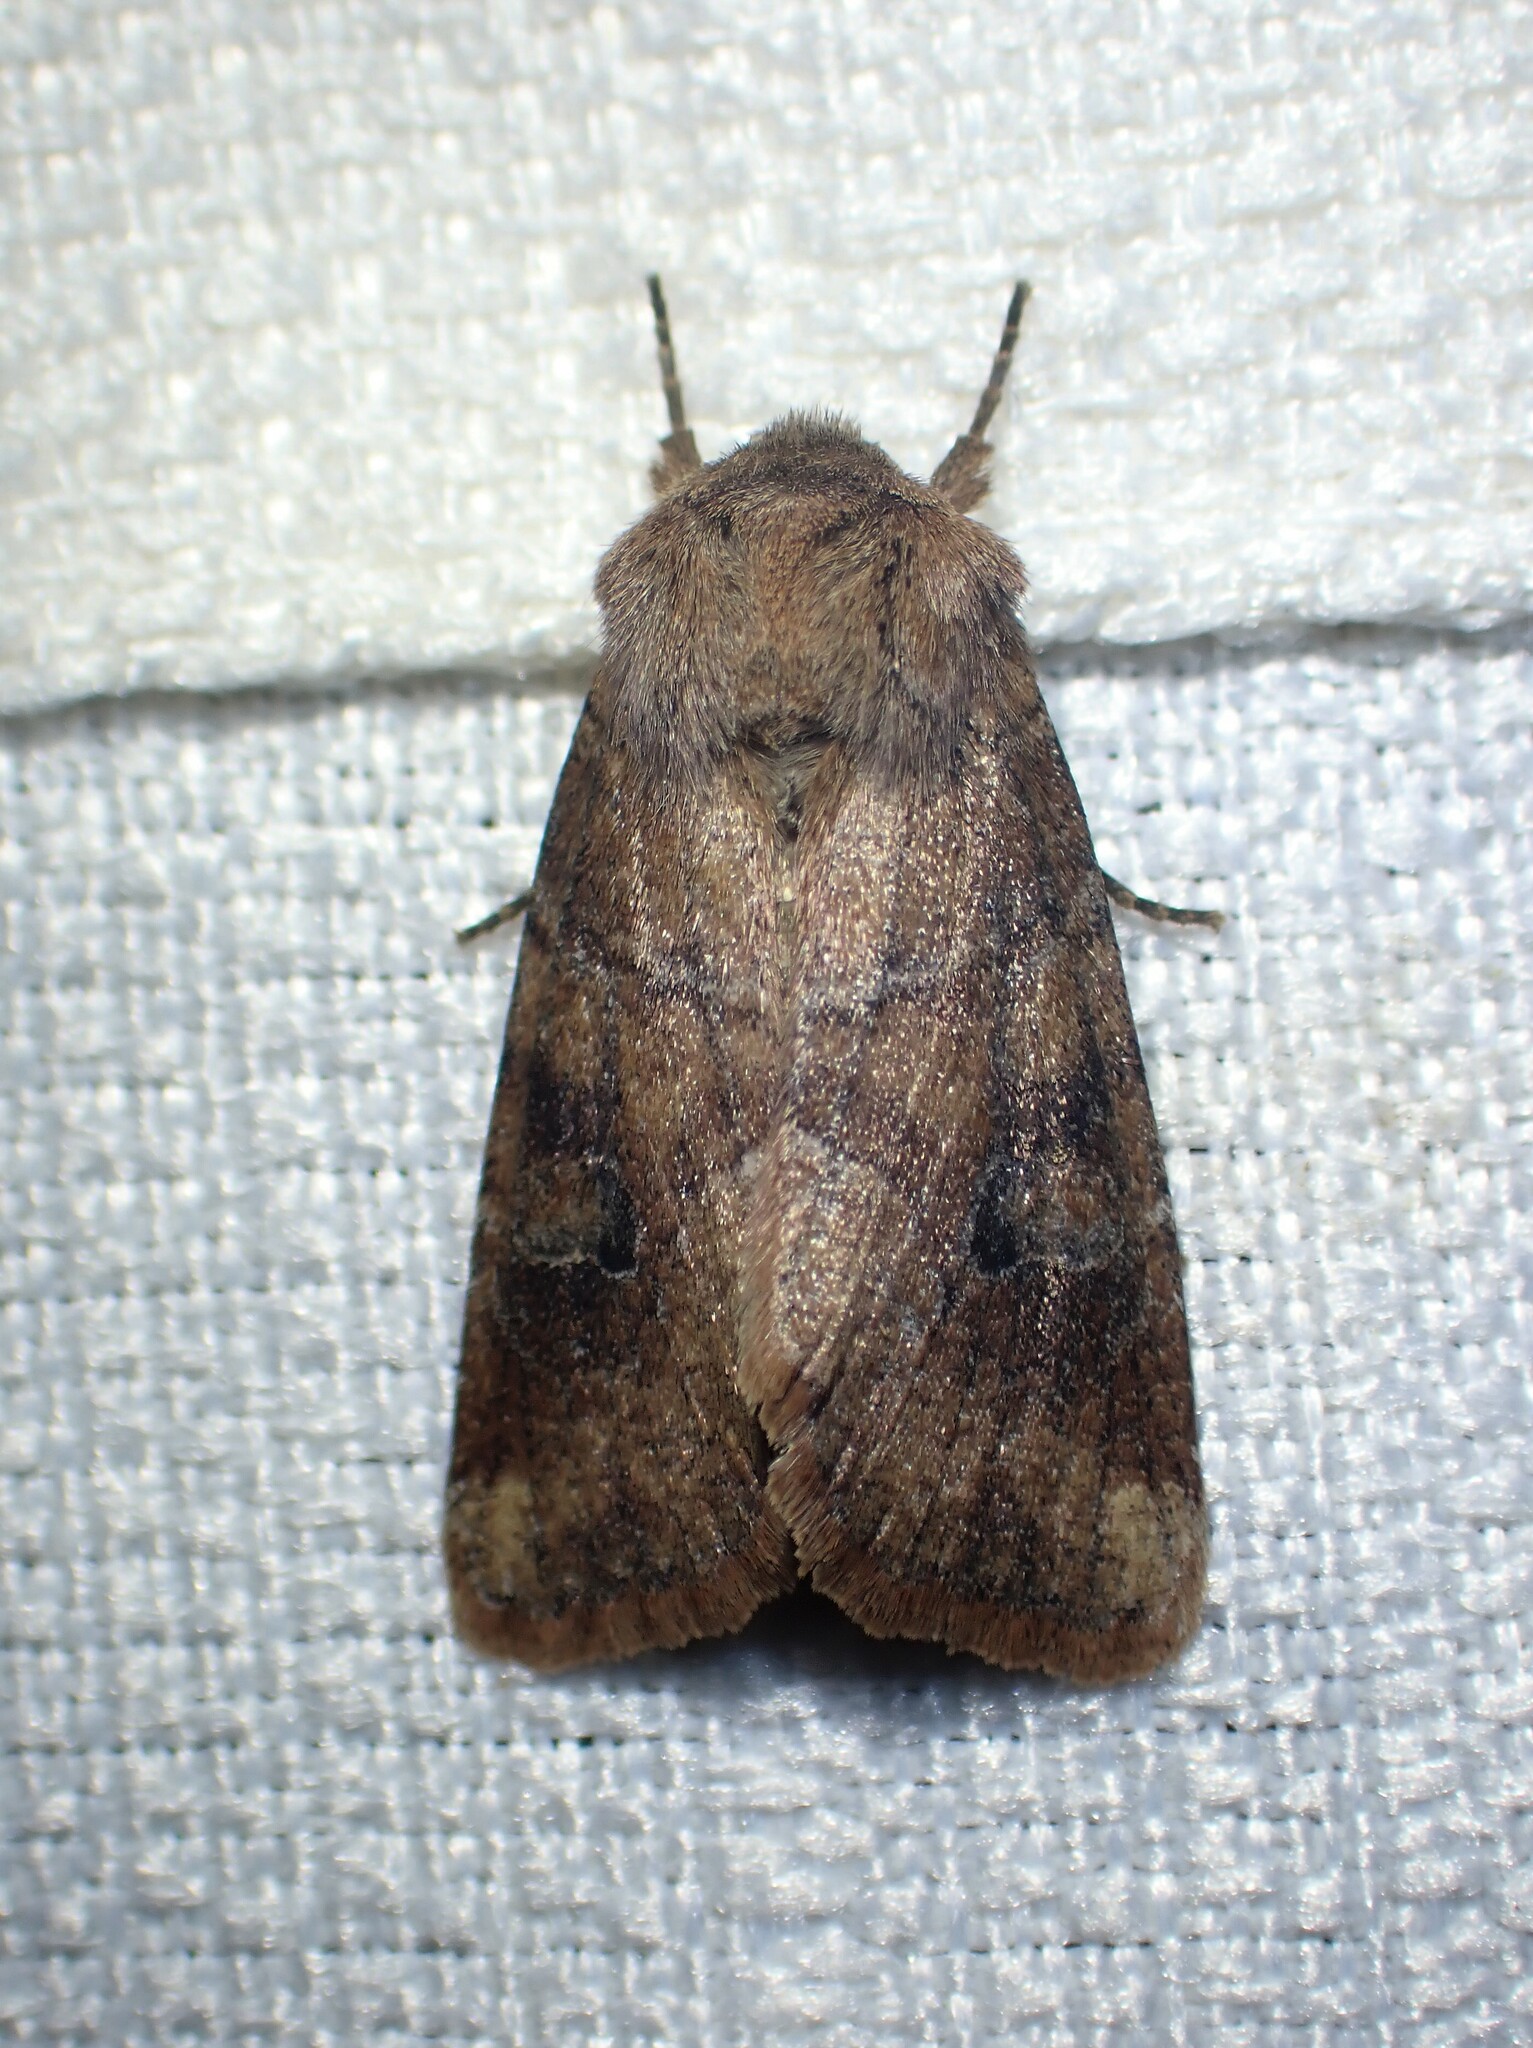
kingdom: Animalia
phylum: Arthropoda
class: Insecta
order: Lepidoptera
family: Noctuidae
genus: Crocigrapha
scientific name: Crocigrapha normani
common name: Norman's quaker
